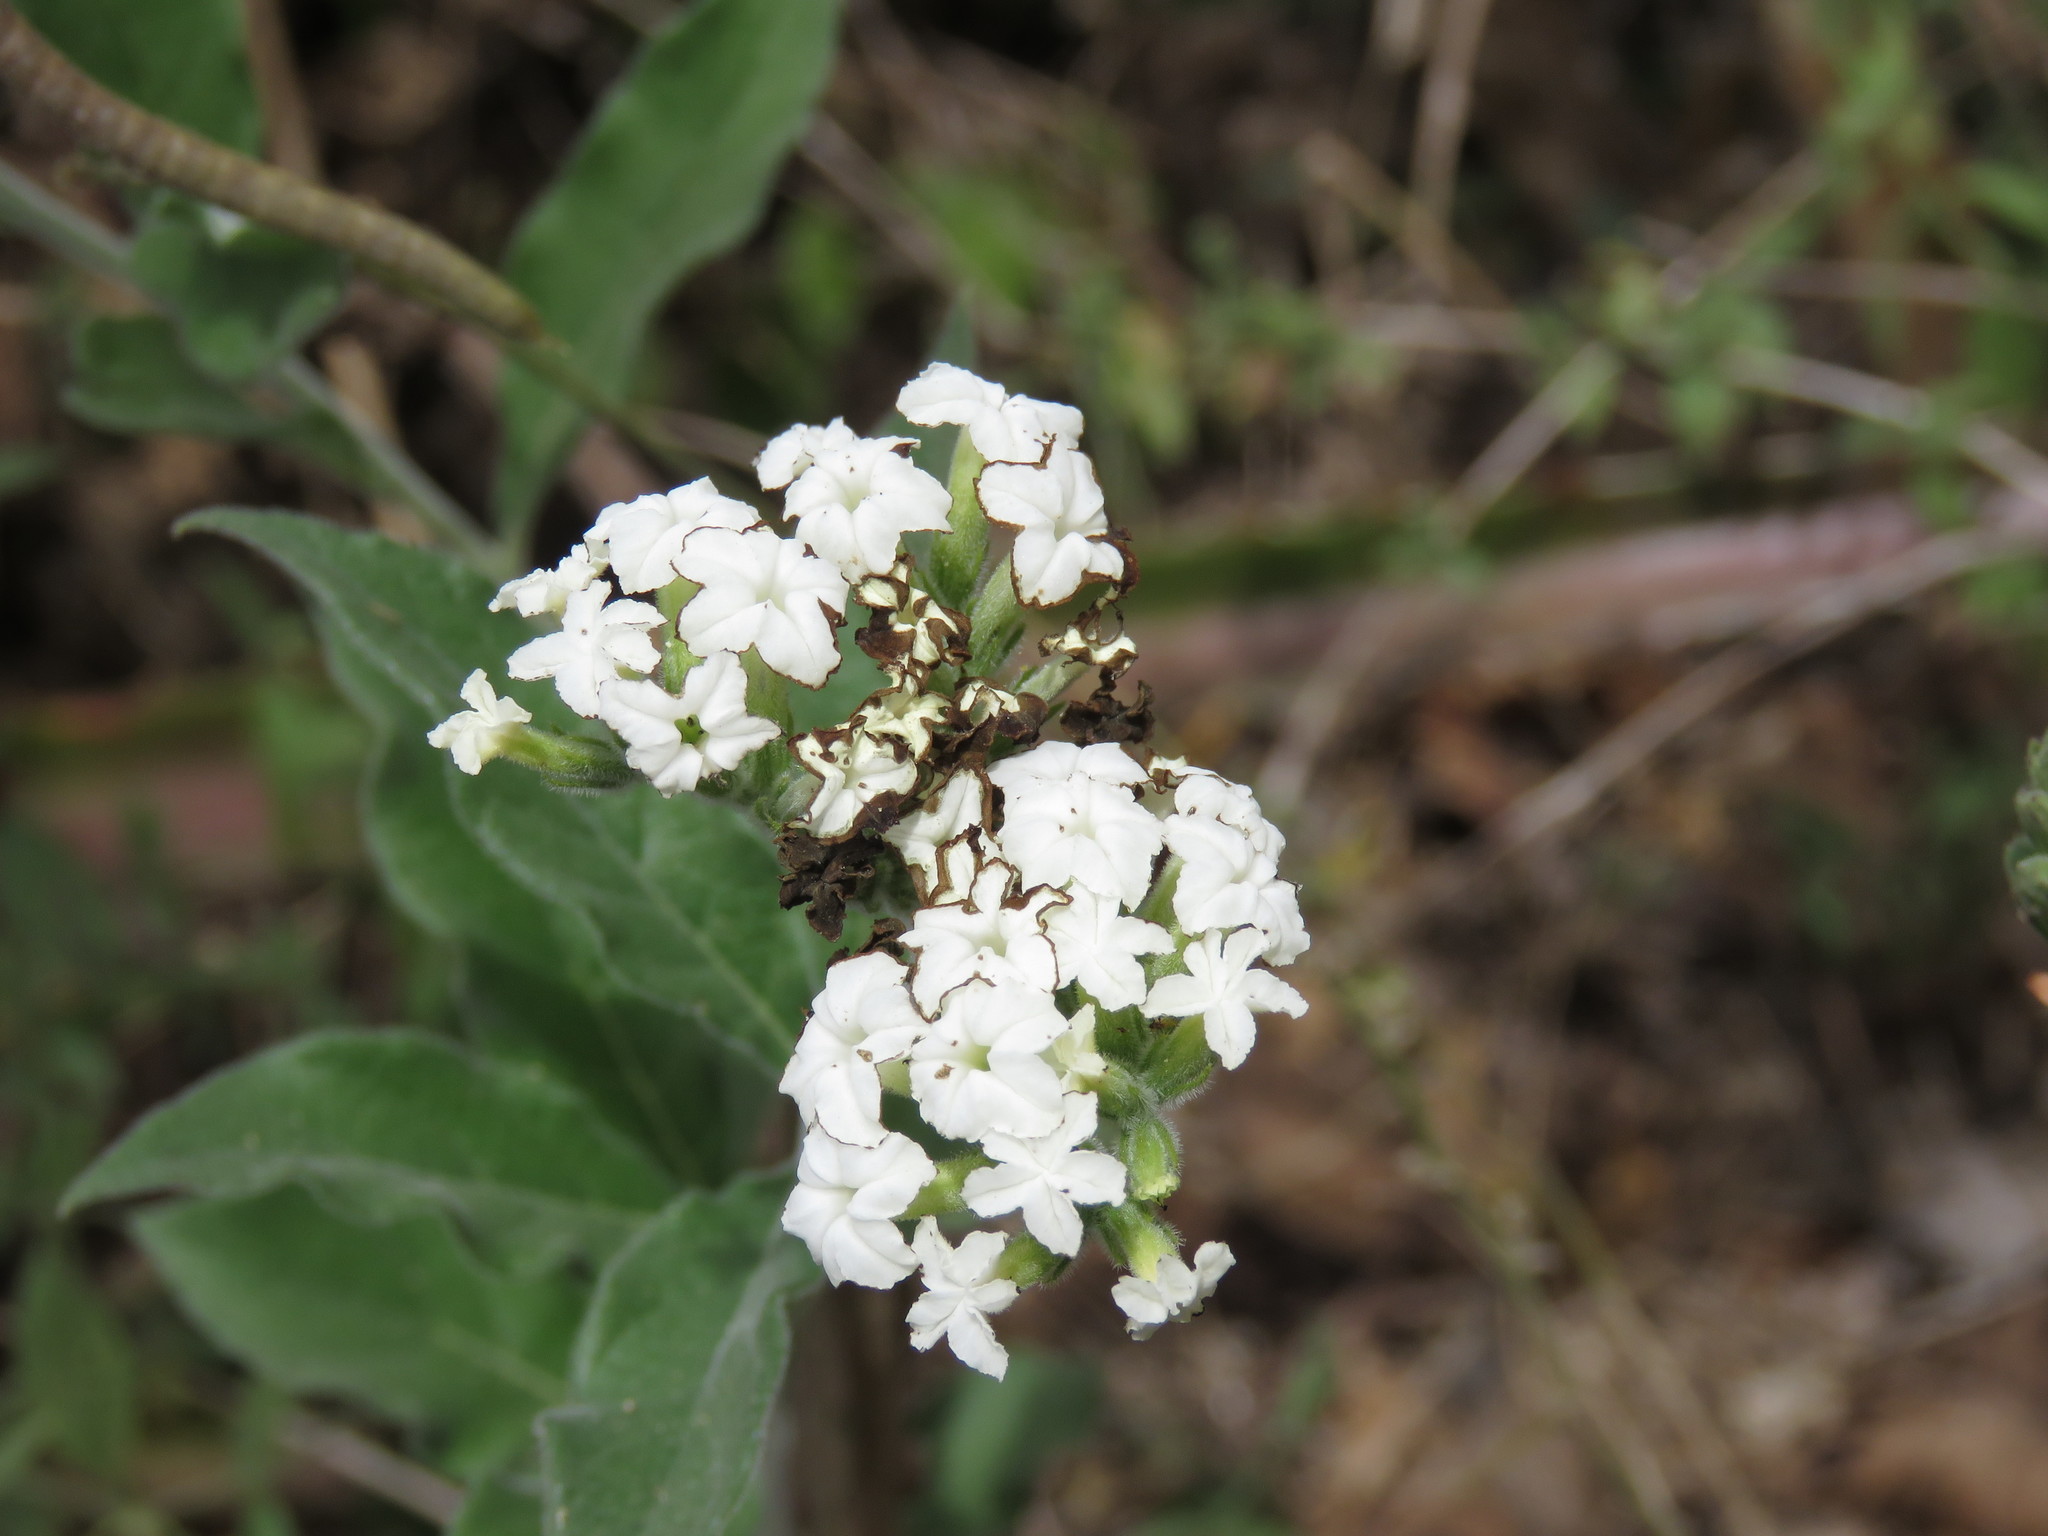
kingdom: Plantae
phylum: Tracheophyta
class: Magnoliopsida
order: Boraginales
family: Heliotropiaceae
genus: Tournefortia
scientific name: Tournefortia mutabilis
